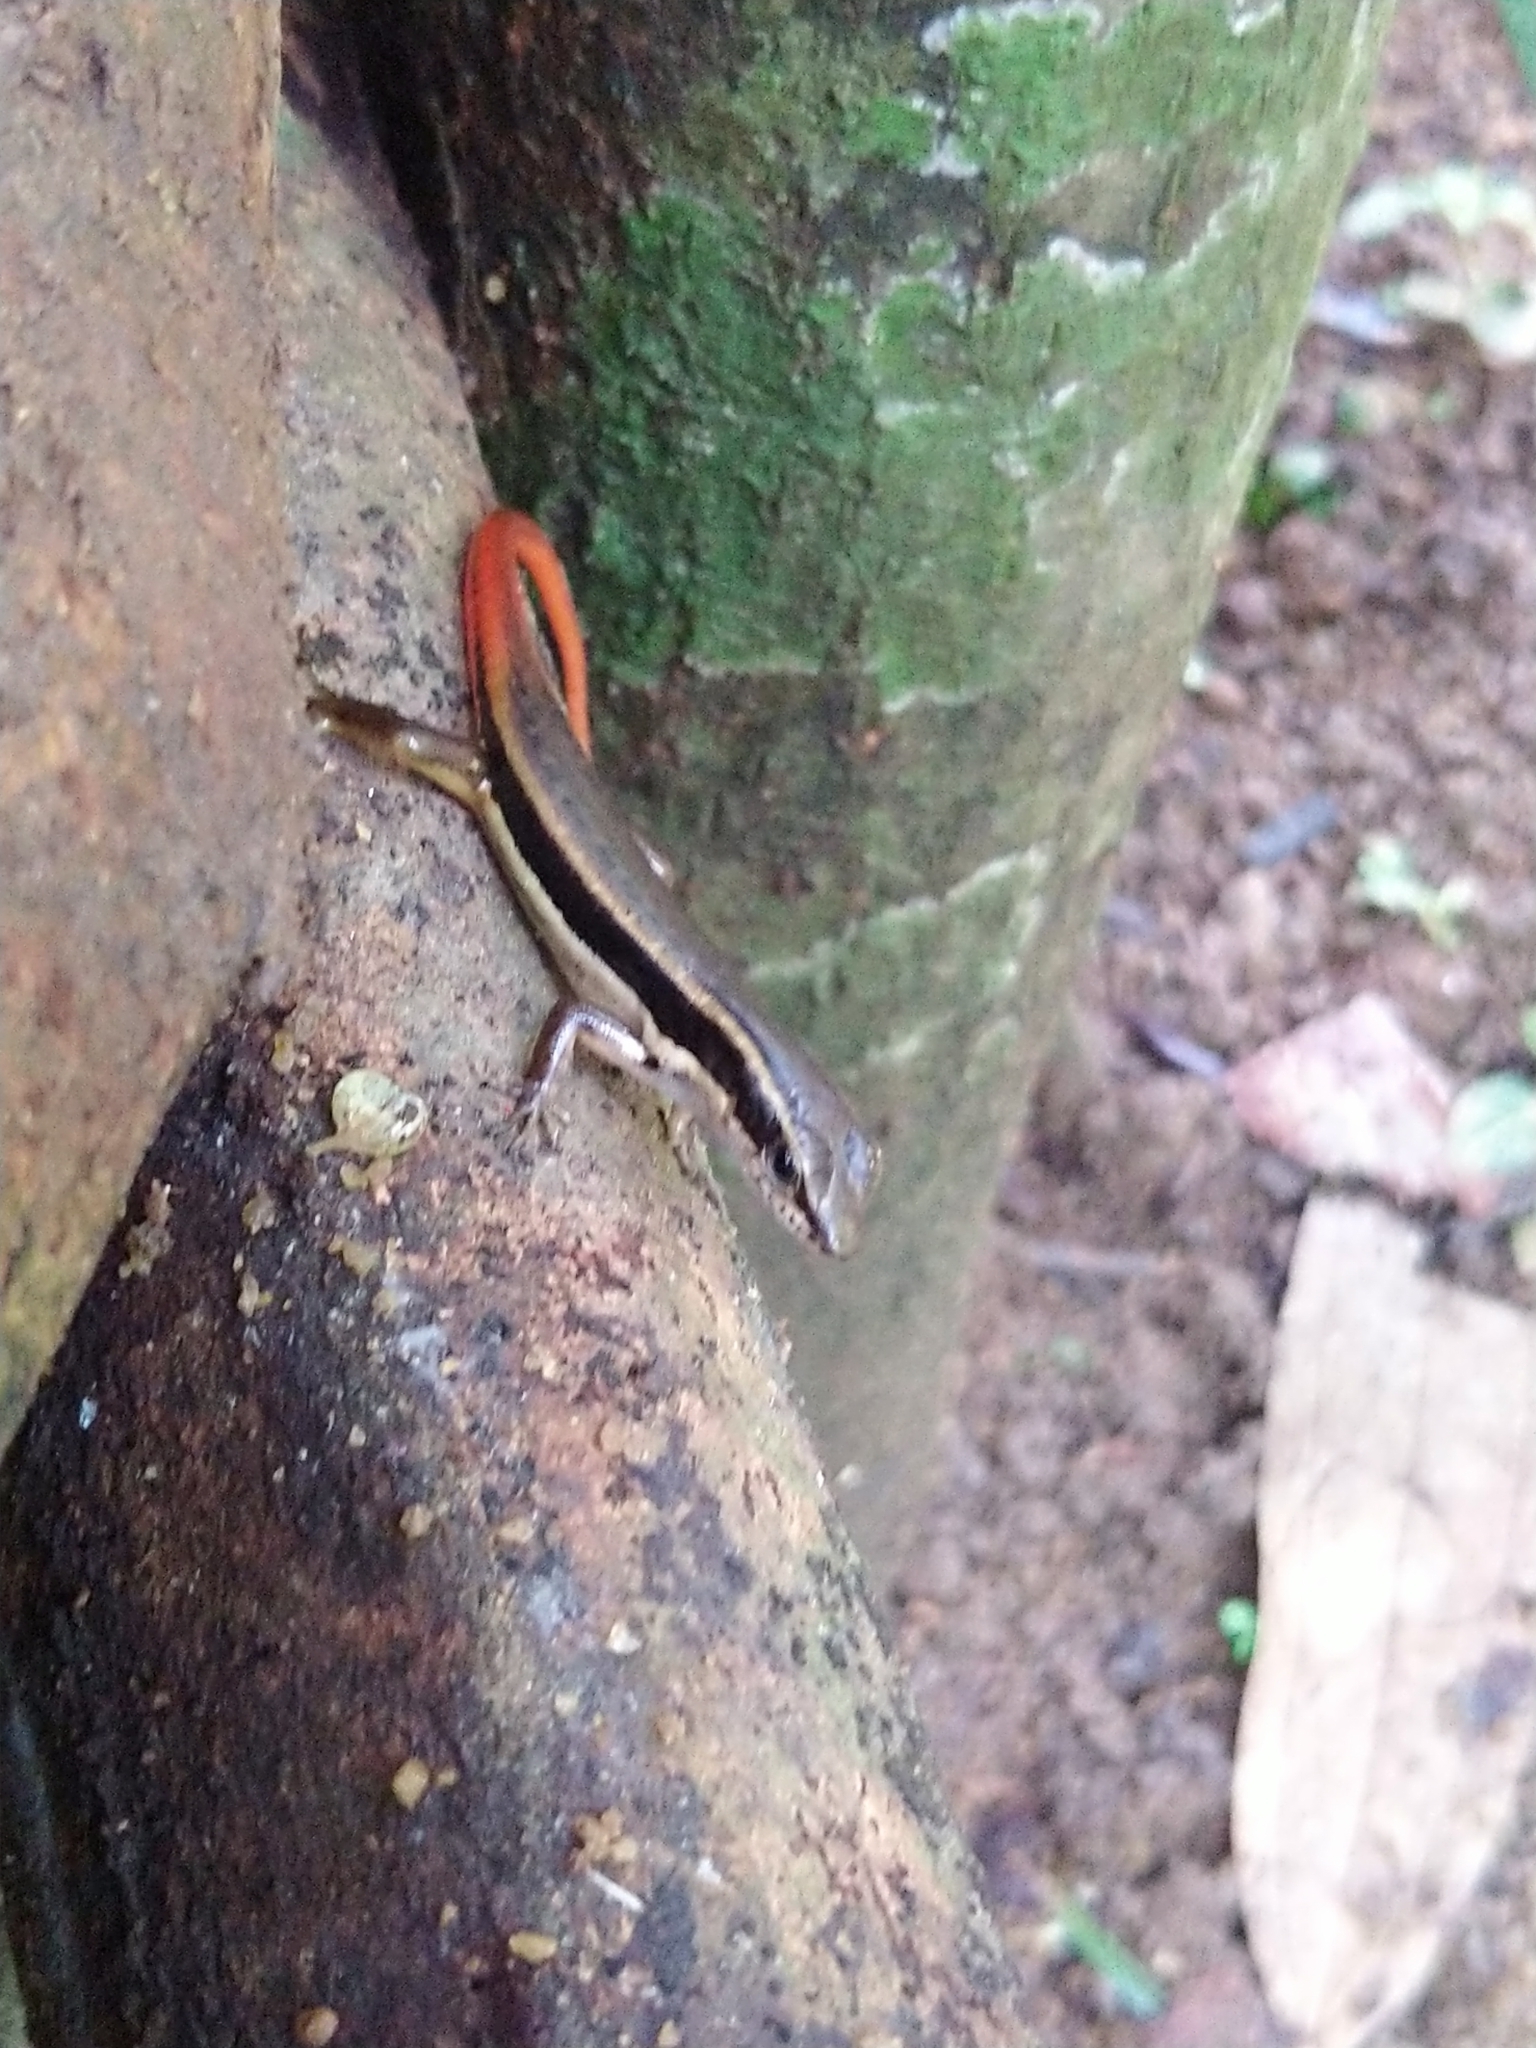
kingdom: Animalia
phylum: Chordata
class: Squamata
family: Scincidae
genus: Sphenomorphus
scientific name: Sphenomorphus dussumieri
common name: Dussumier's forest skink
